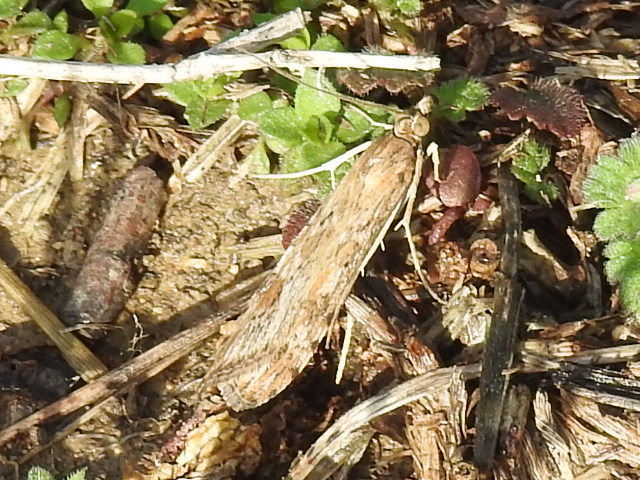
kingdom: Animalia
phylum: Arthropoda
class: Insecta
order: Lepidoptera
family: Crambidae
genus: Nomophila
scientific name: Nomophila nearctica
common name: American rush veneer
